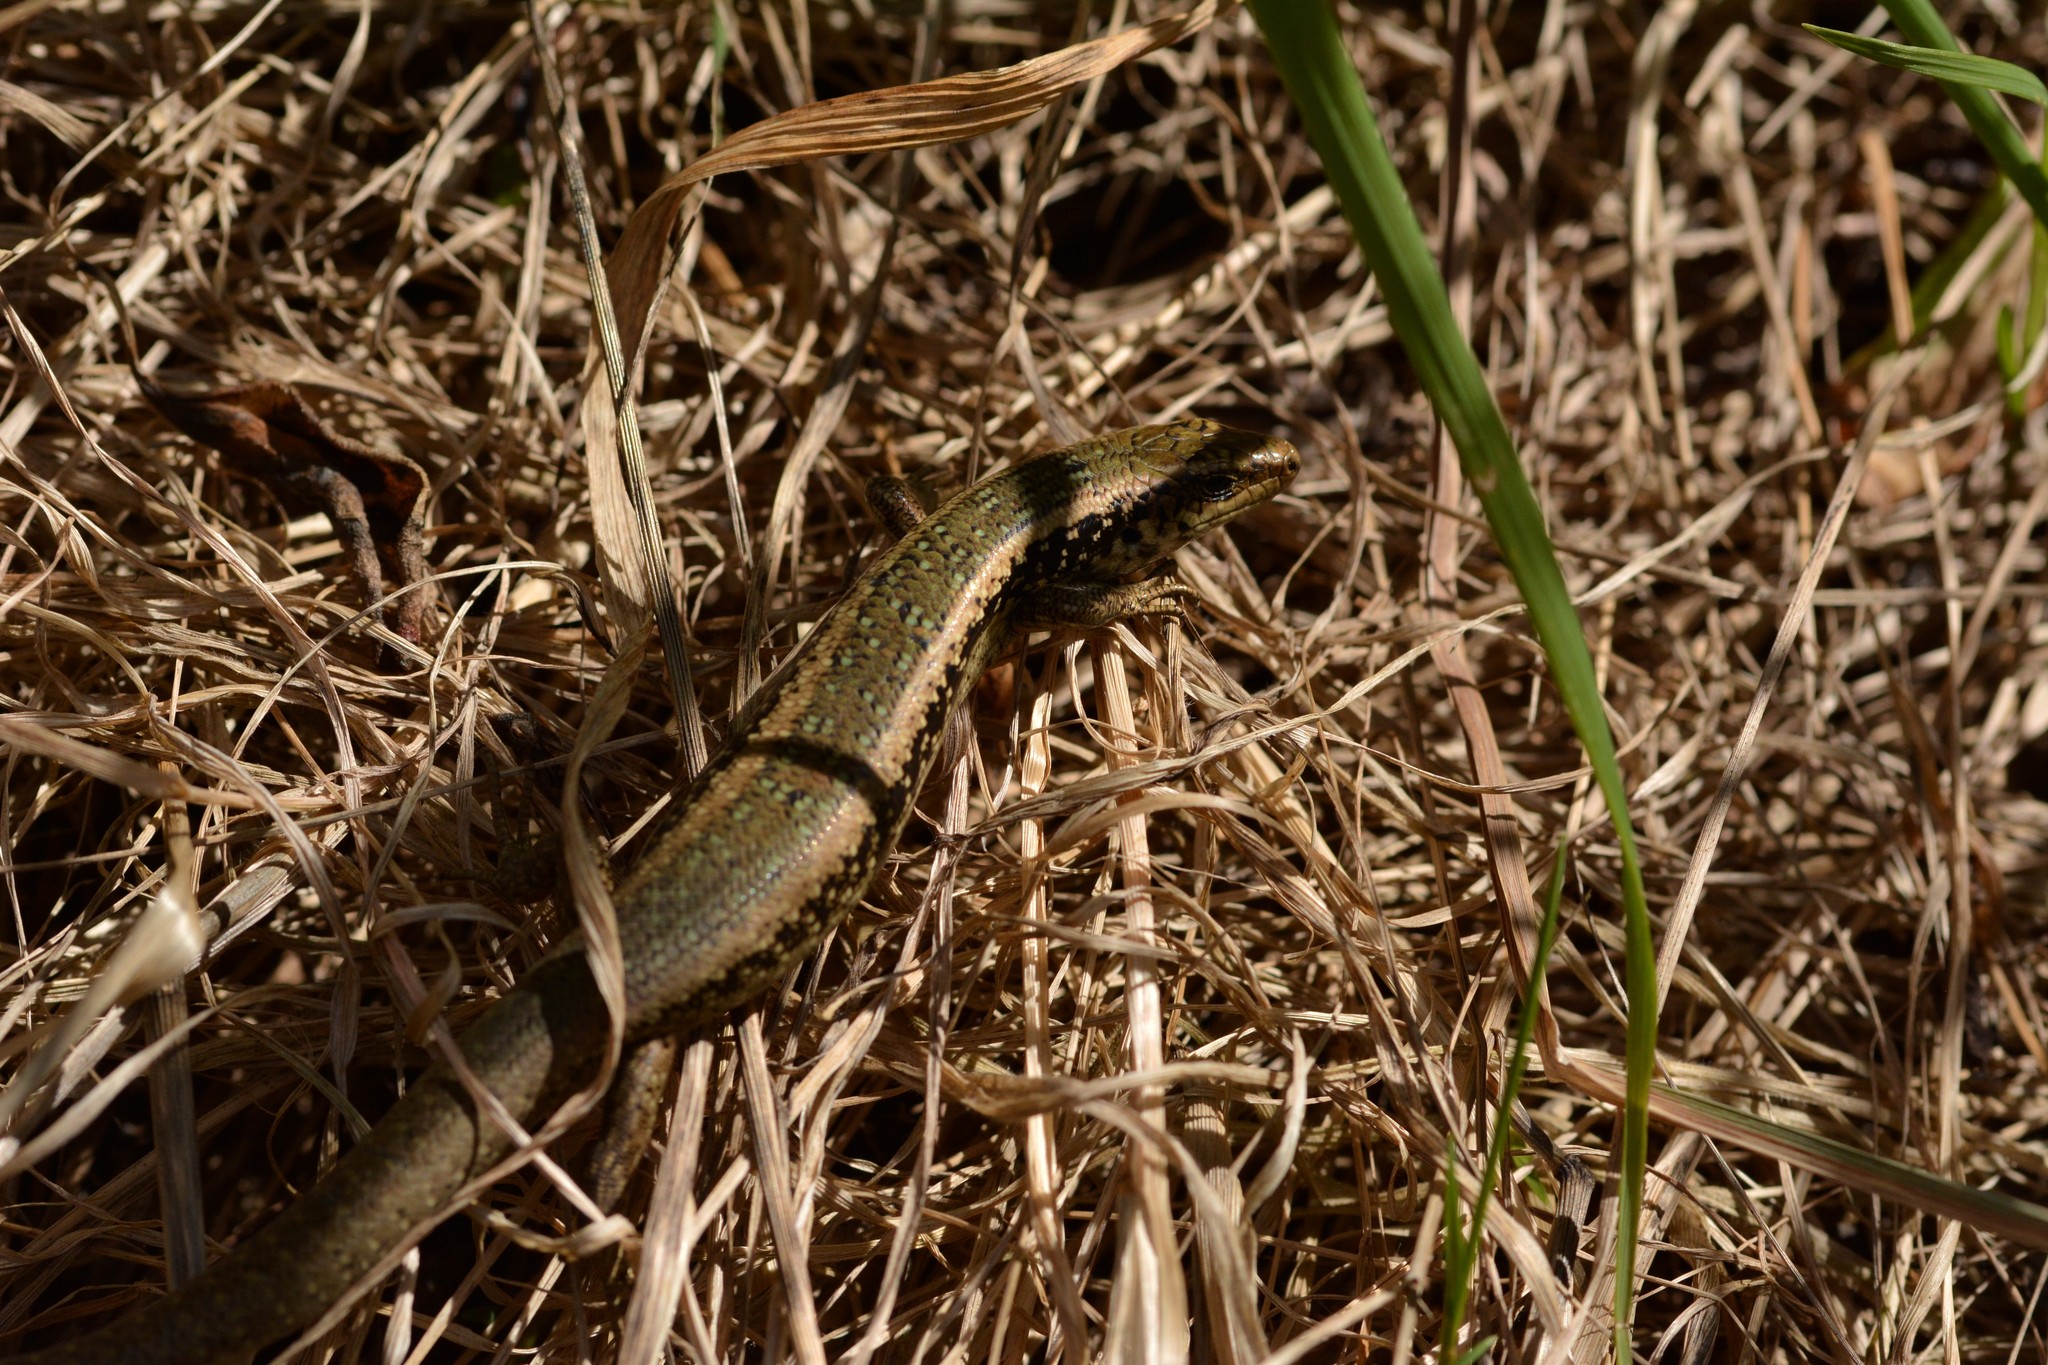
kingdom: Animalia
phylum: Chordata
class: Squamata
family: Scincidae
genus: Oligosoma
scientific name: Oligosoma kokowai
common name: Northern spotted skink
